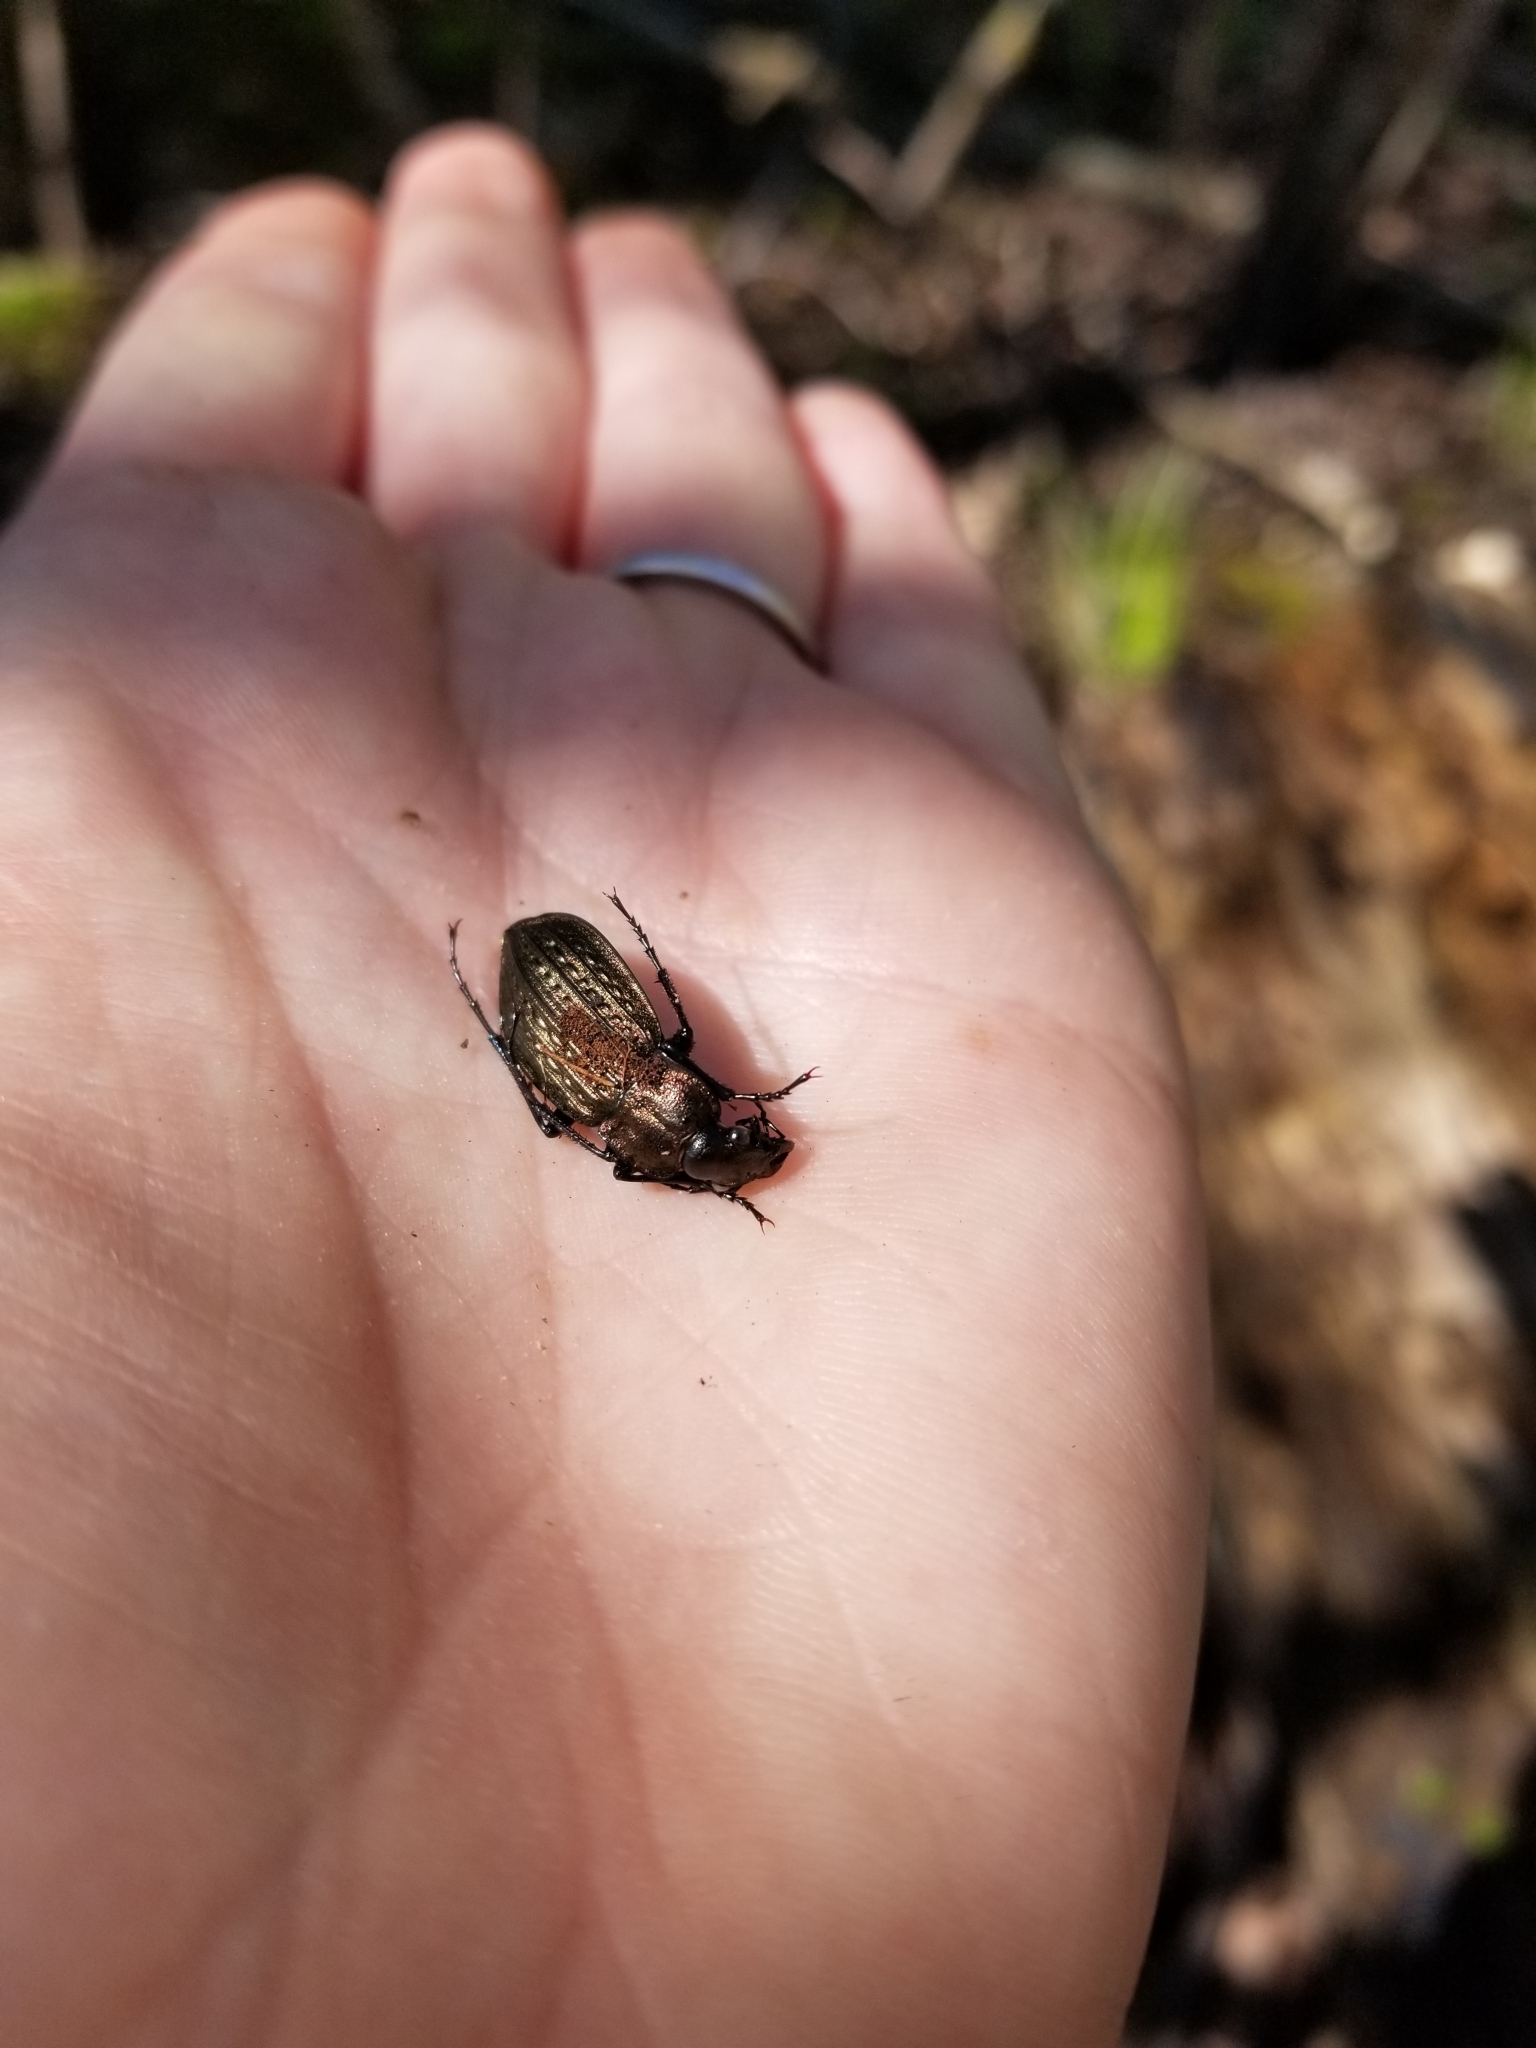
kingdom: Animalia
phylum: Arthropoda
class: Insecta
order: Coleoptera
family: Carabidae
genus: Carabus
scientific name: Carabus granulatus
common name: Granulate ground beetle
